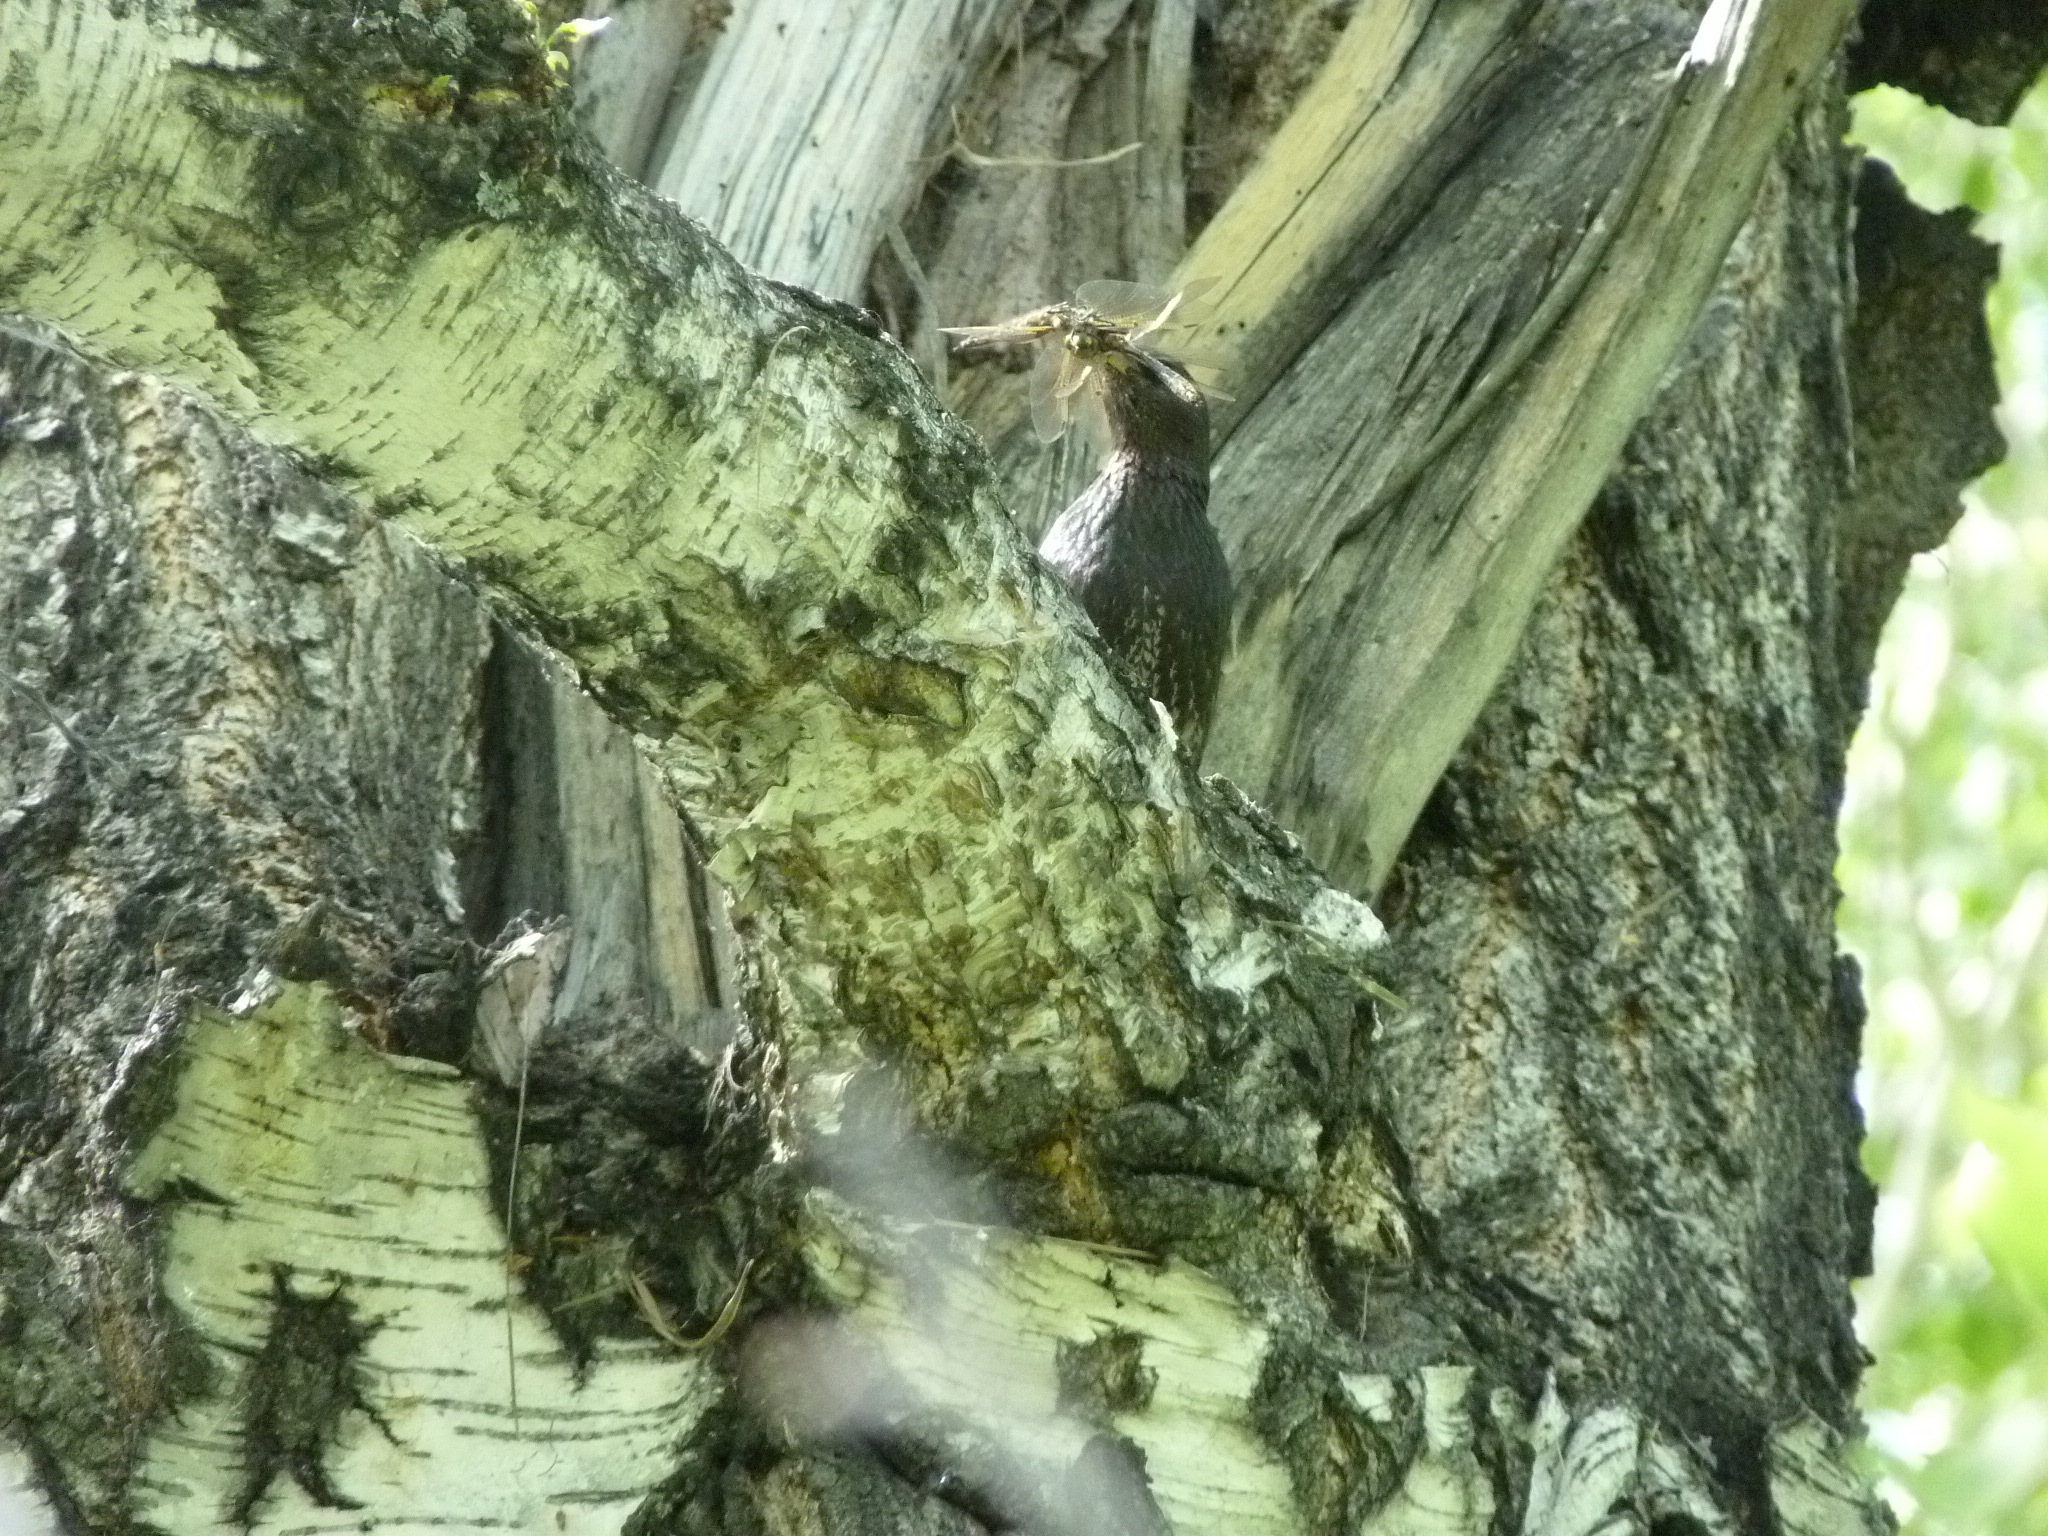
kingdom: Animalia
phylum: Chordata
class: Aves
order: Passeriformes
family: Sturnidae
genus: Sturnus
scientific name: Sturnus vulgaris
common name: Common starling
